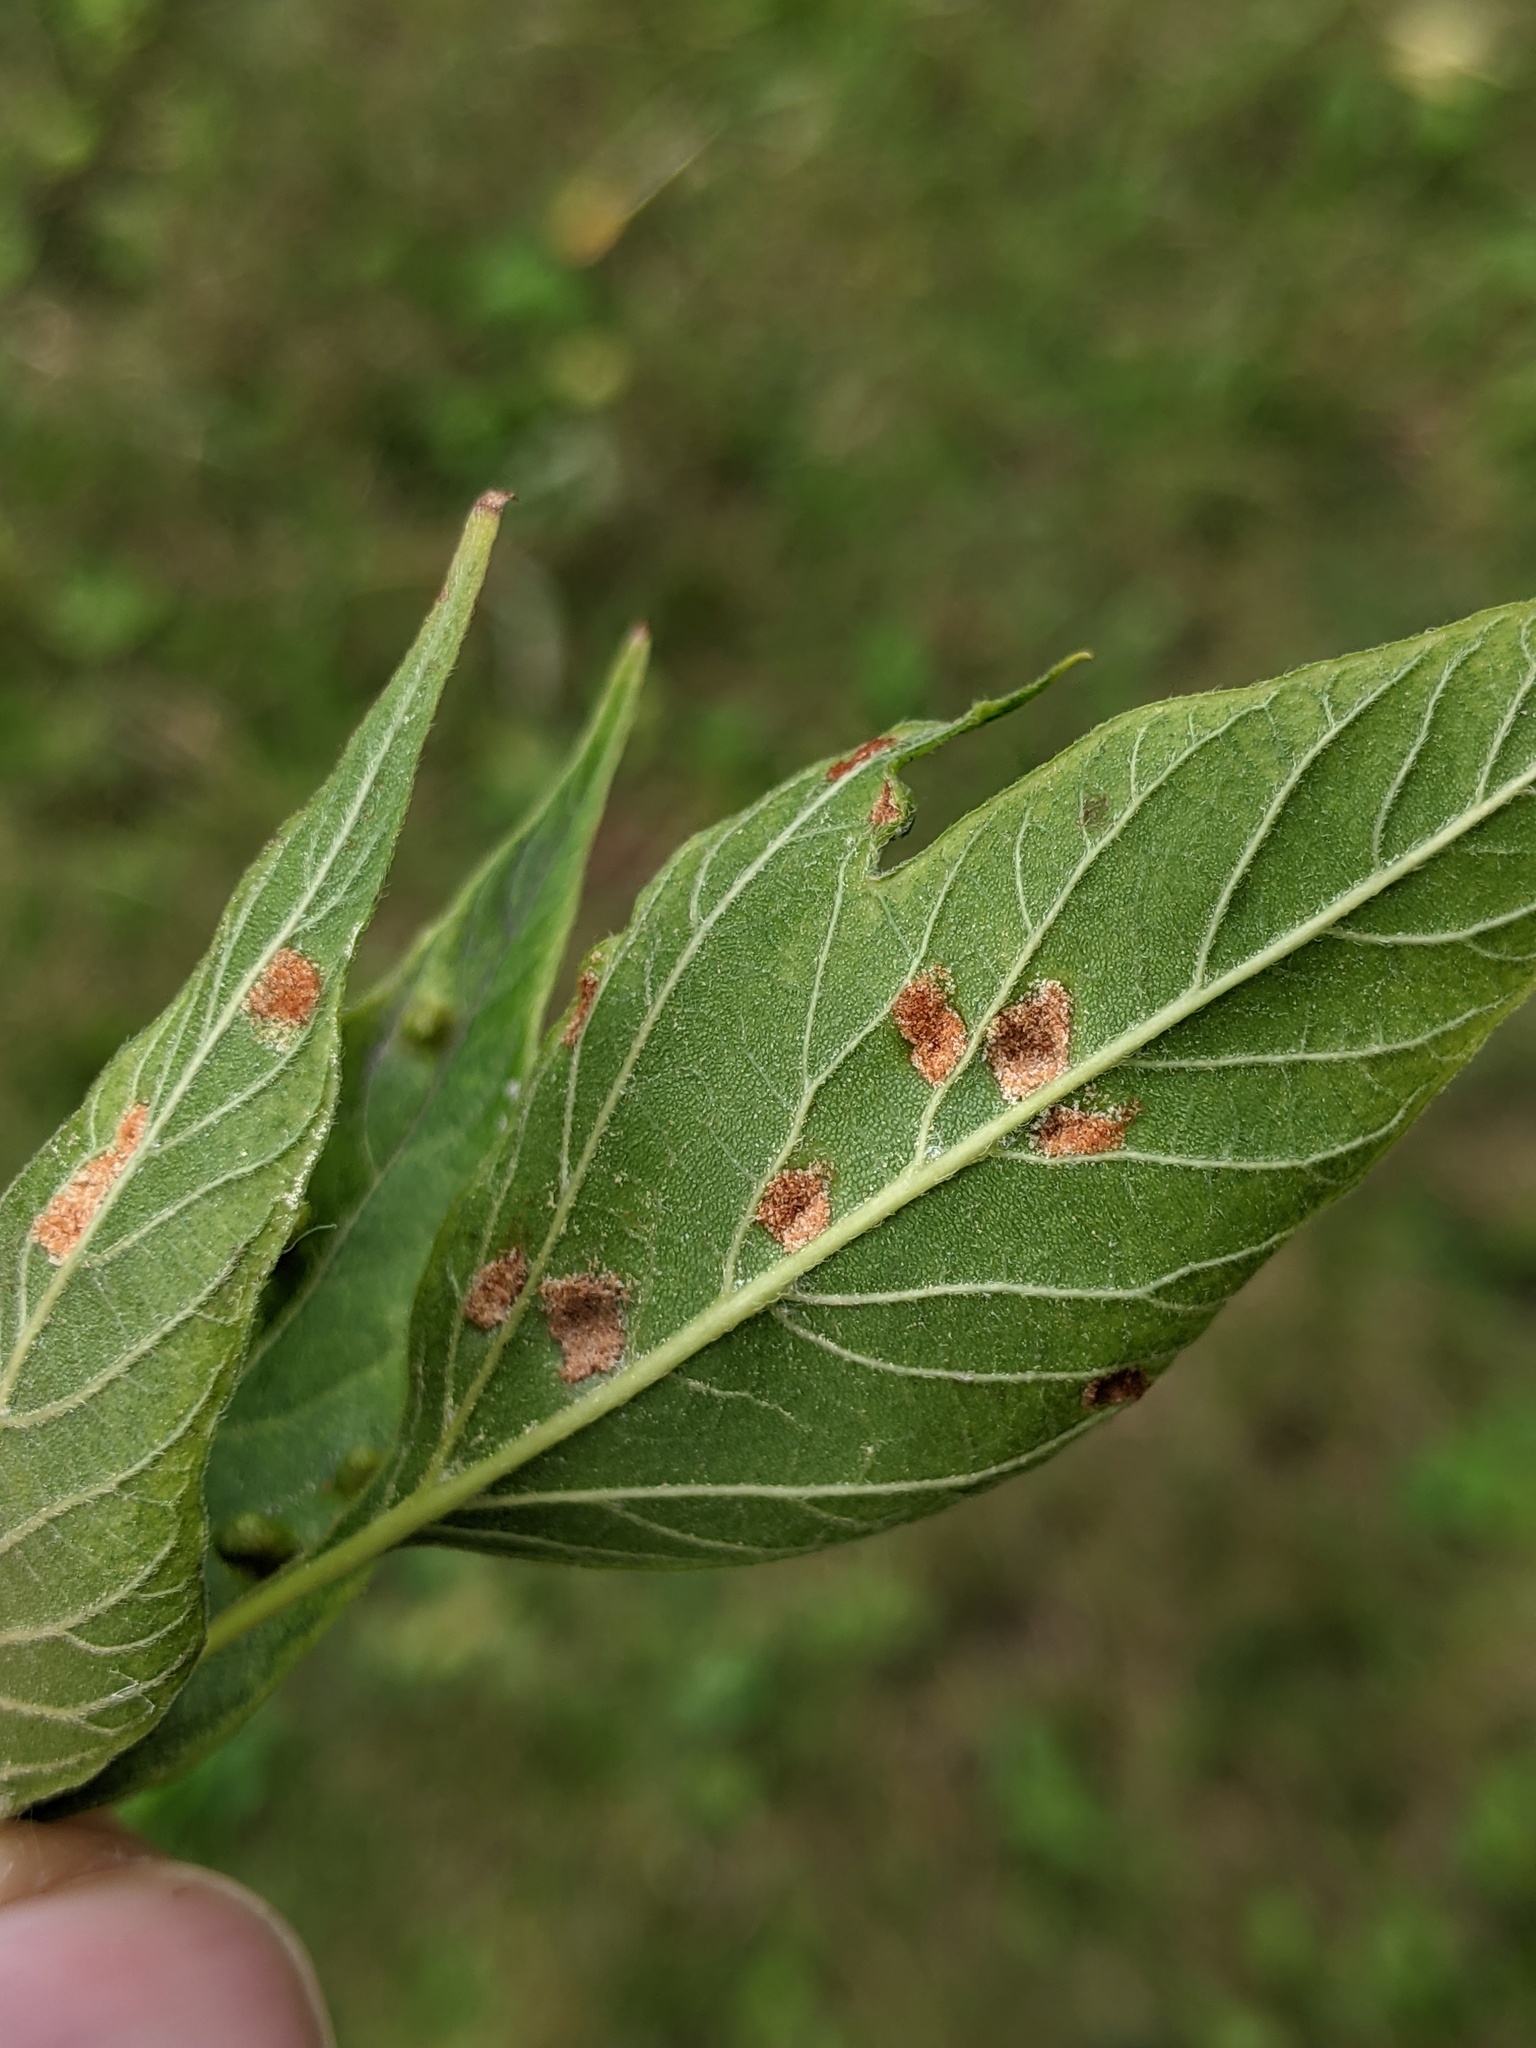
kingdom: Animalia
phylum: Arthropoda
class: Arachnida
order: Trombidiformes
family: Eriophyidae
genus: Aceria
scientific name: Aceria
